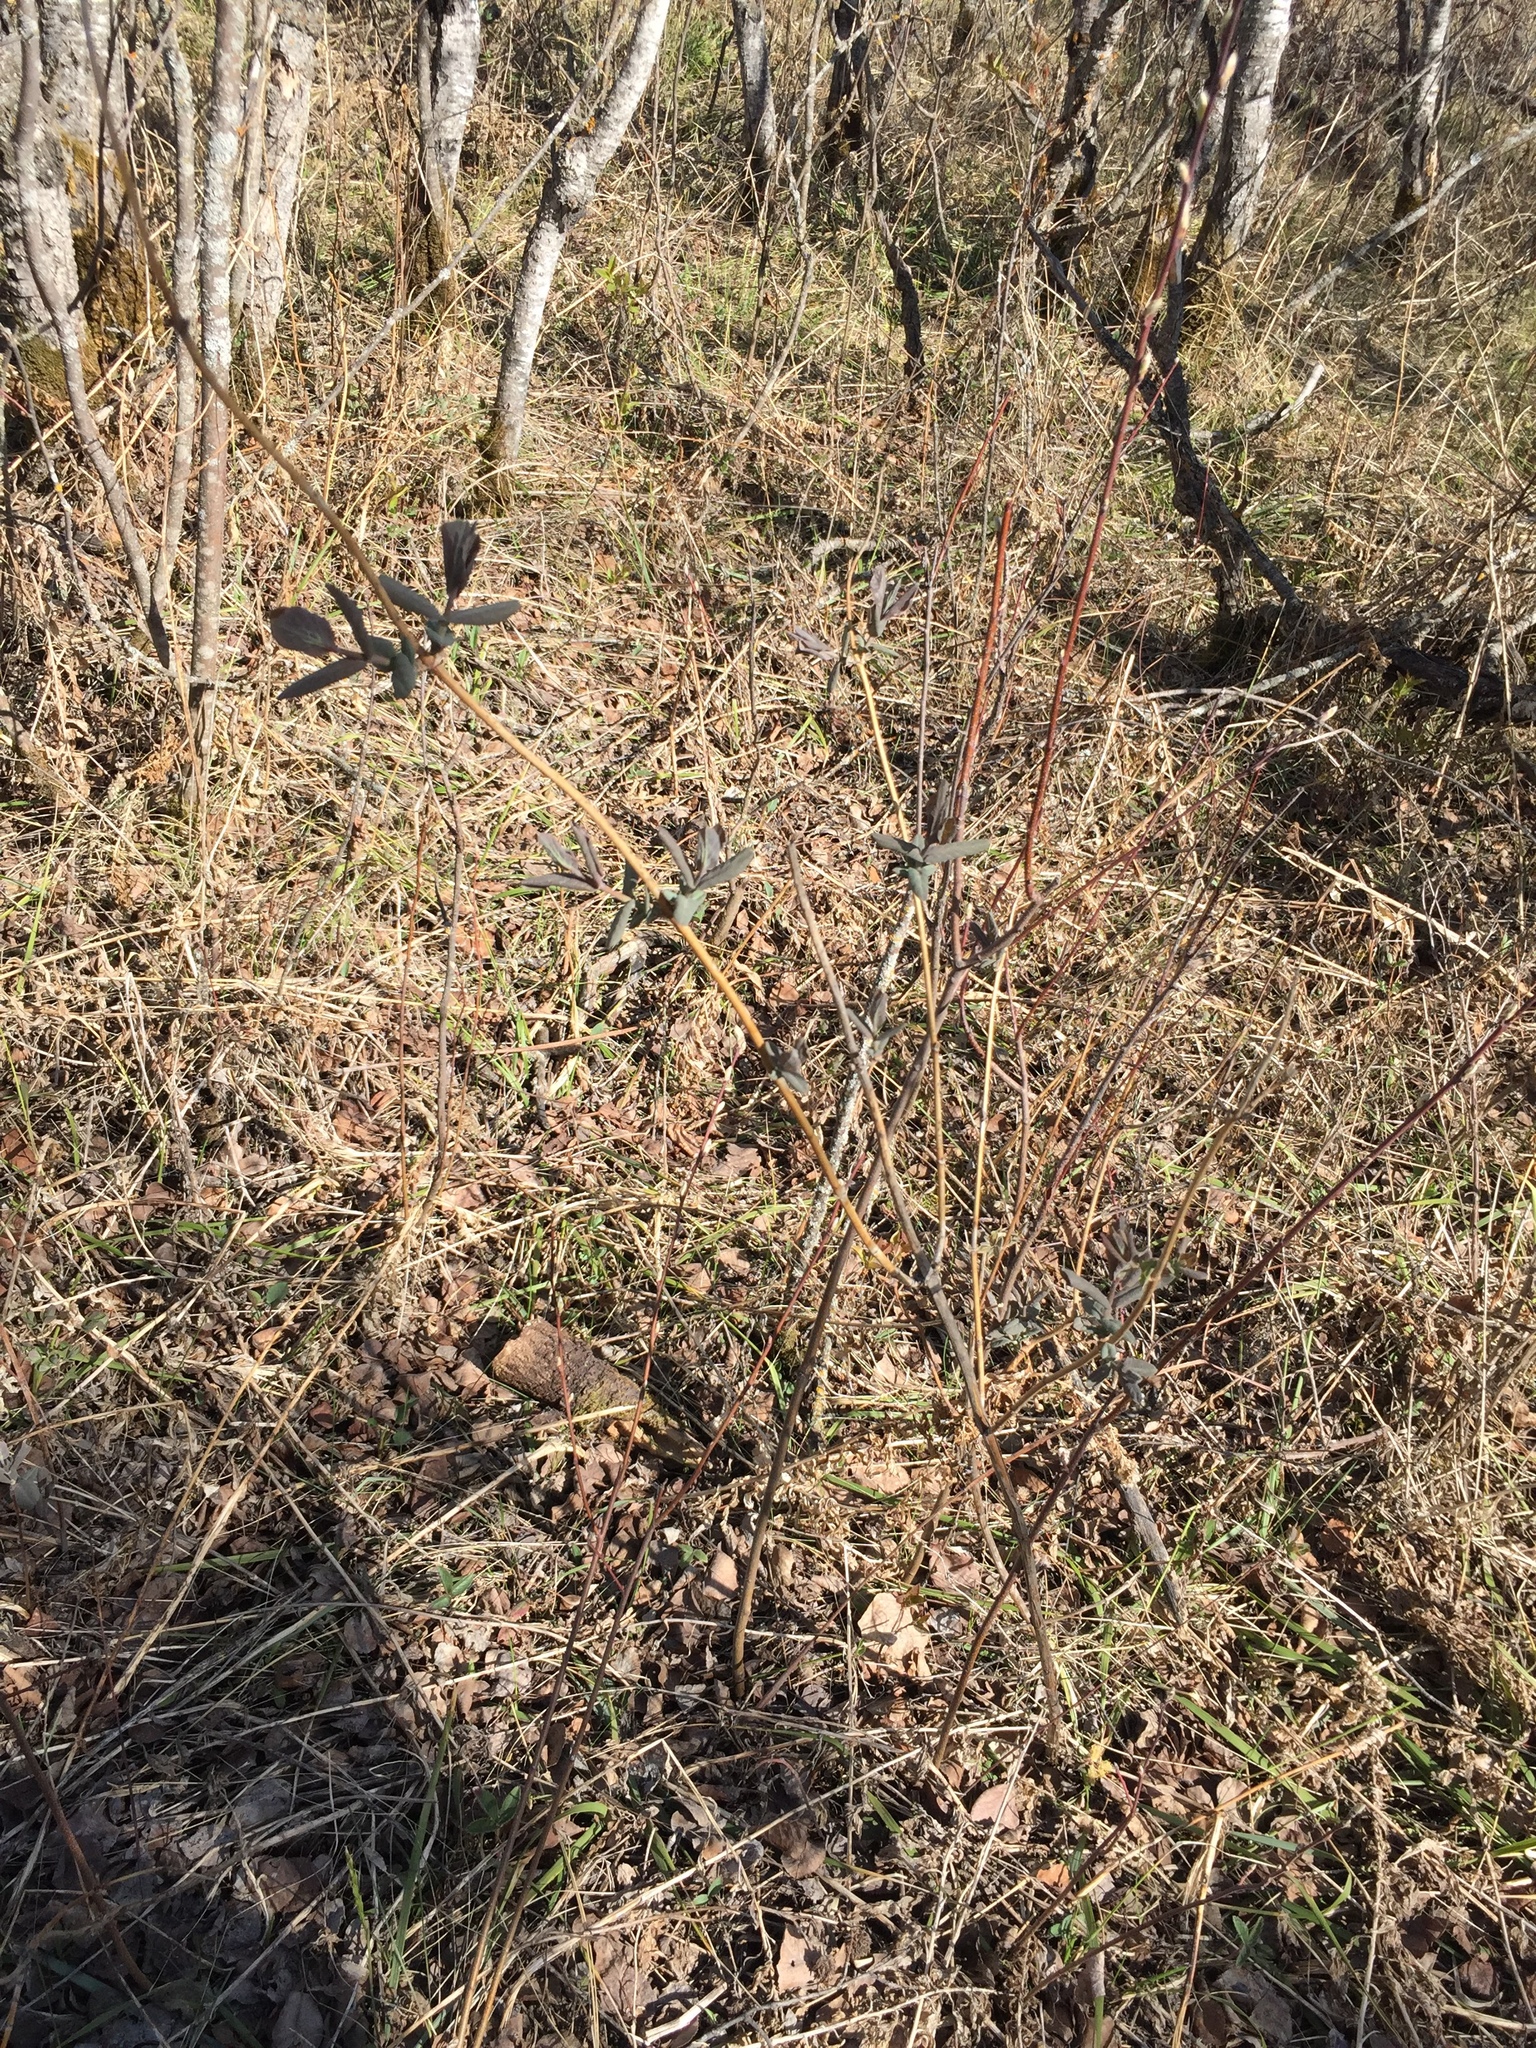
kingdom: Plantae
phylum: Tracheophyta
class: Magnoliopsida
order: Dipsacales
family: Caprifoliaceae
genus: Lonicera
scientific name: Lonicera dioica
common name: Limber honeysuckle
